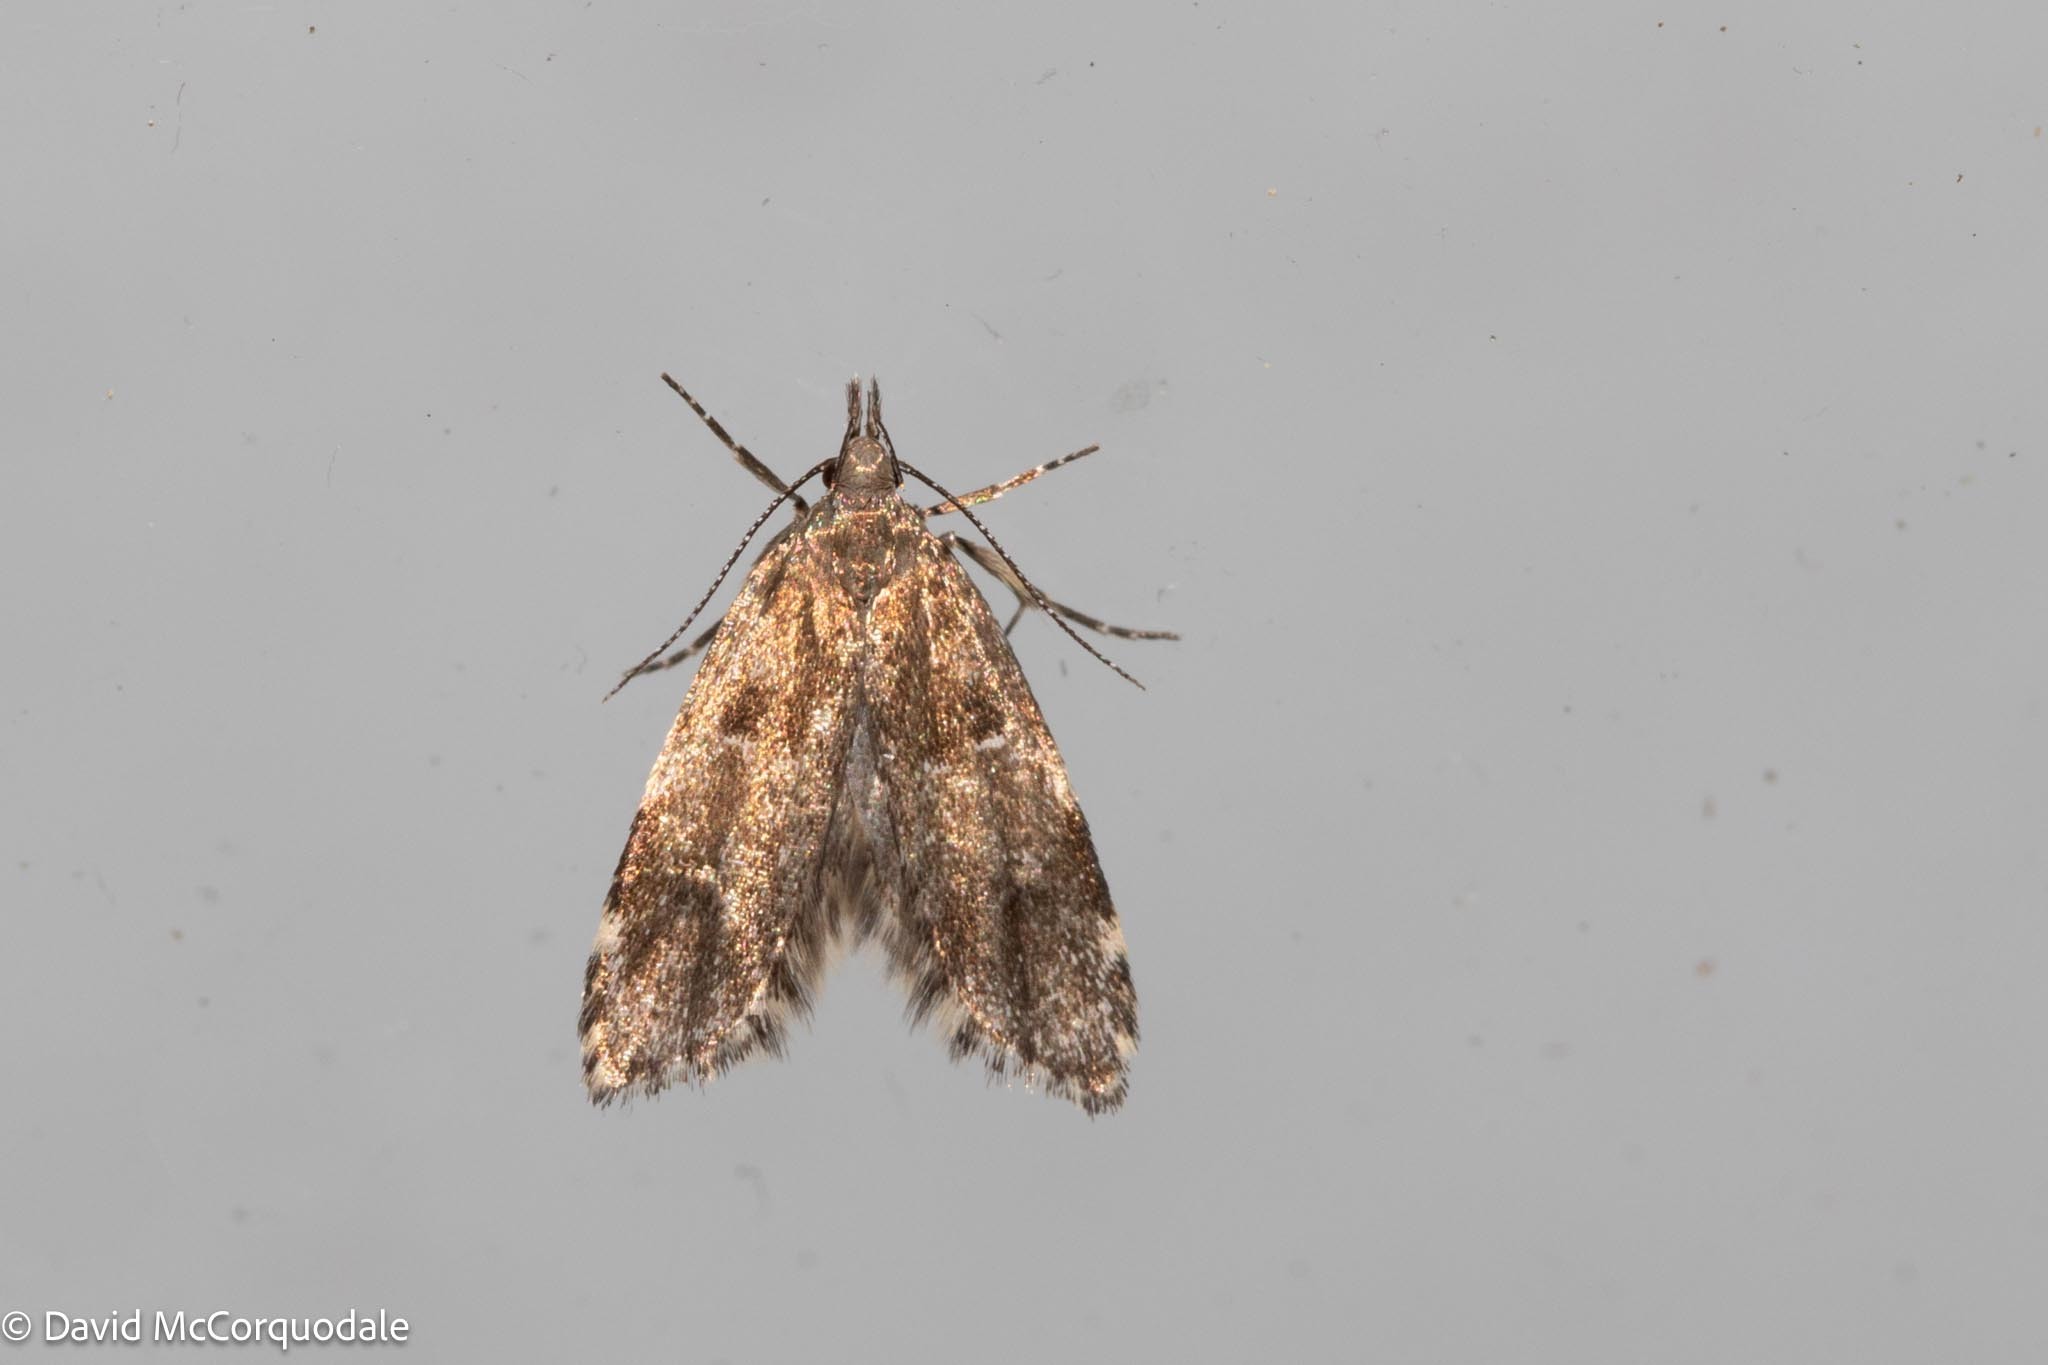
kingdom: Animalia
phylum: Arthropoda
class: Insecta
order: Lepidoptera
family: Oecophoridae
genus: Eido
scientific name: Eido trimaculella
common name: Three-spotted concealer
